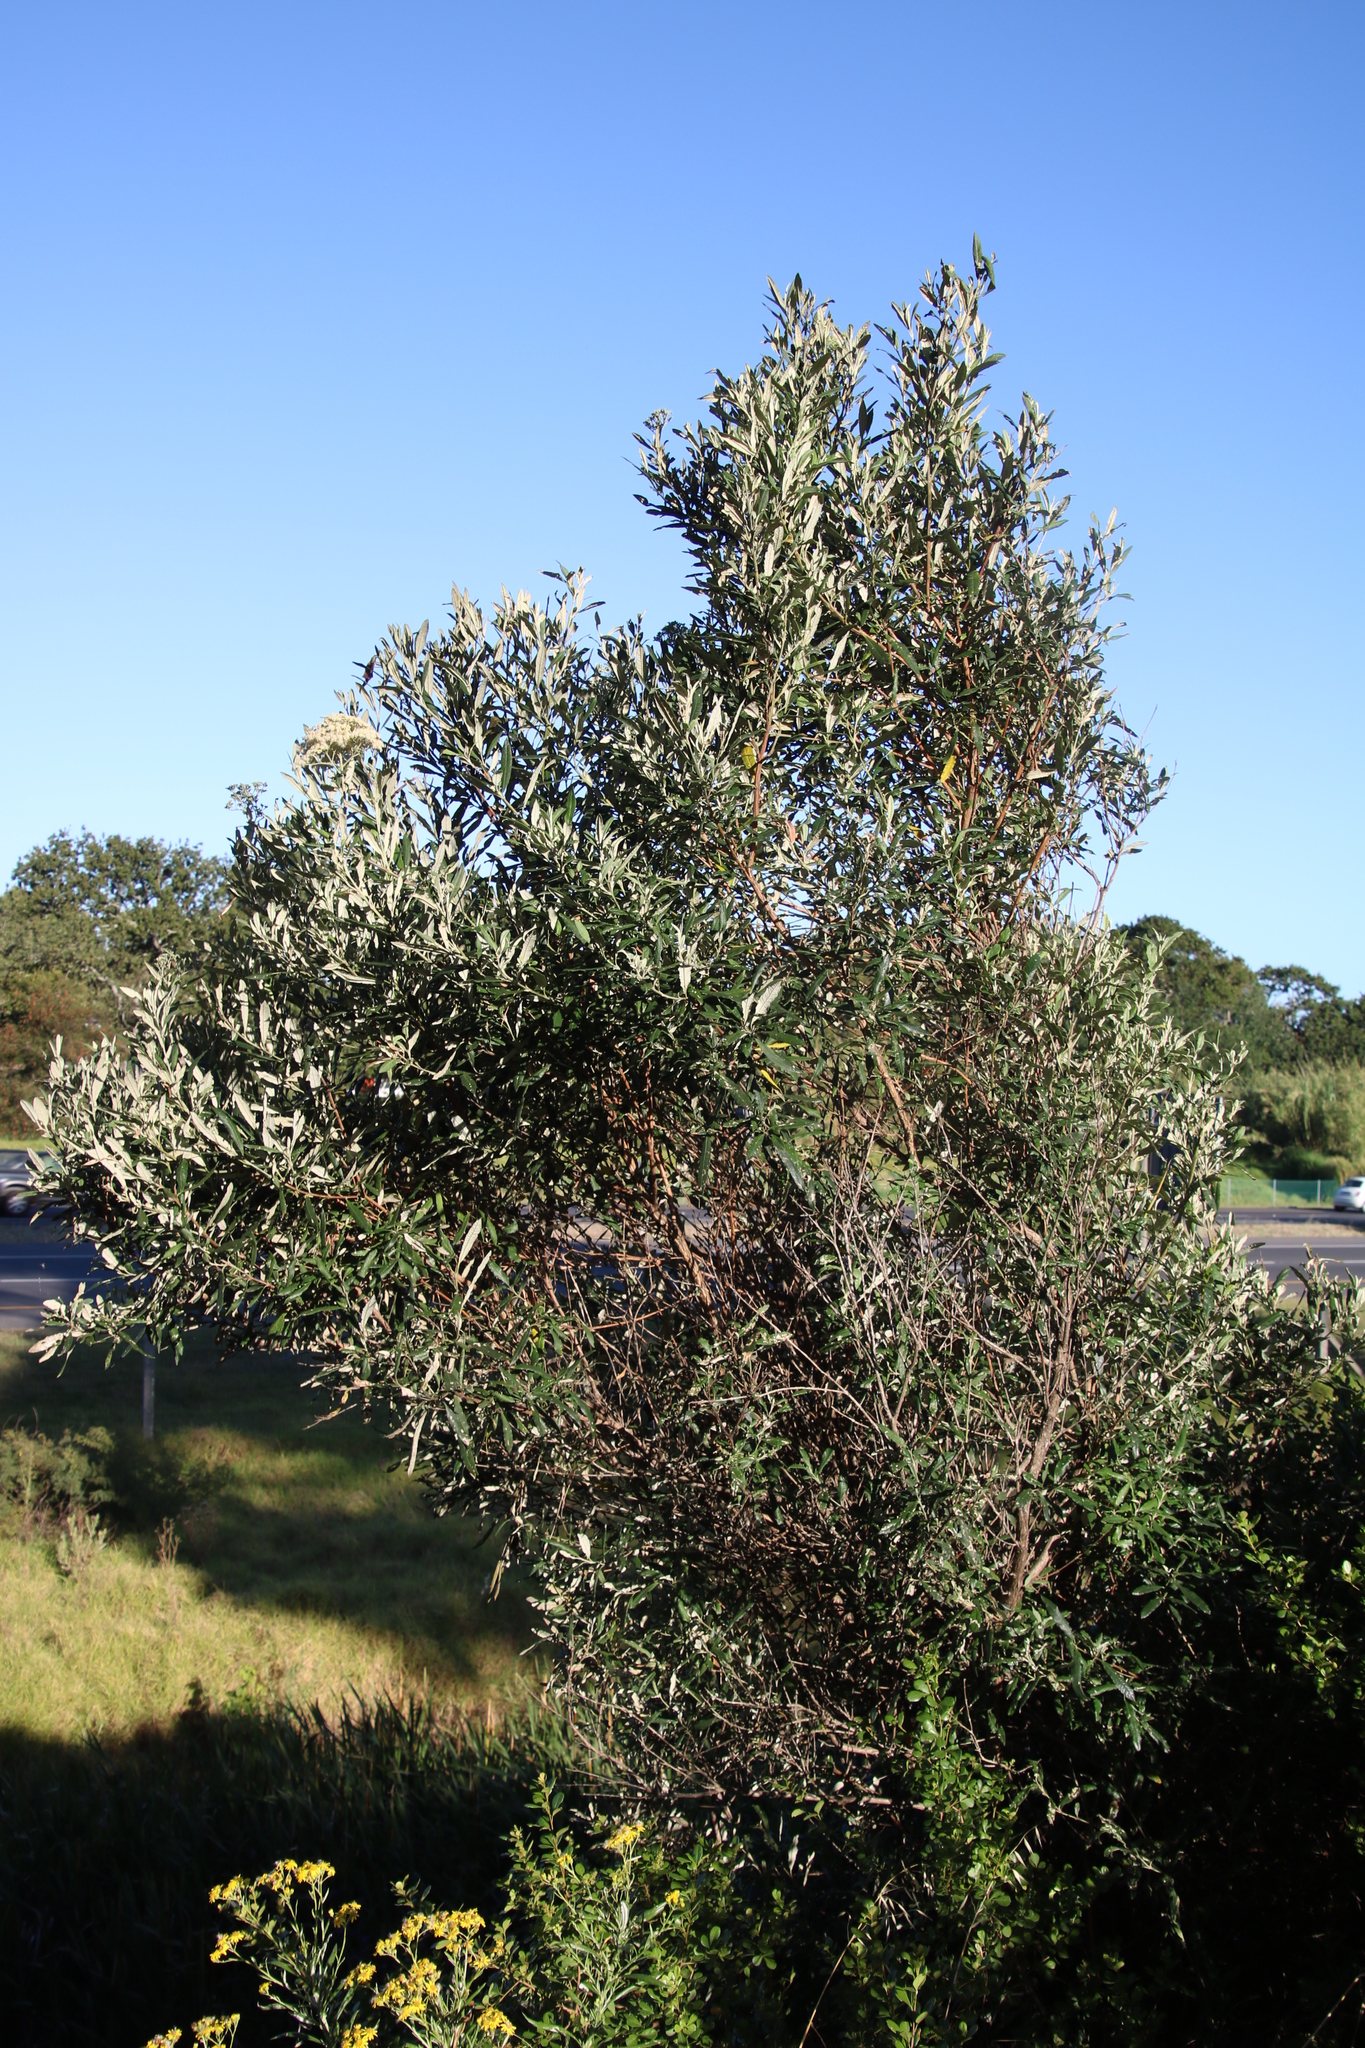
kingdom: Plantae
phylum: Tracheophyta
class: Magnoliopsida
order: Lamiales
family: Scrophulariaceae
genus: Buddleja
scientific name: Buddleja saligna
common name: False olive
